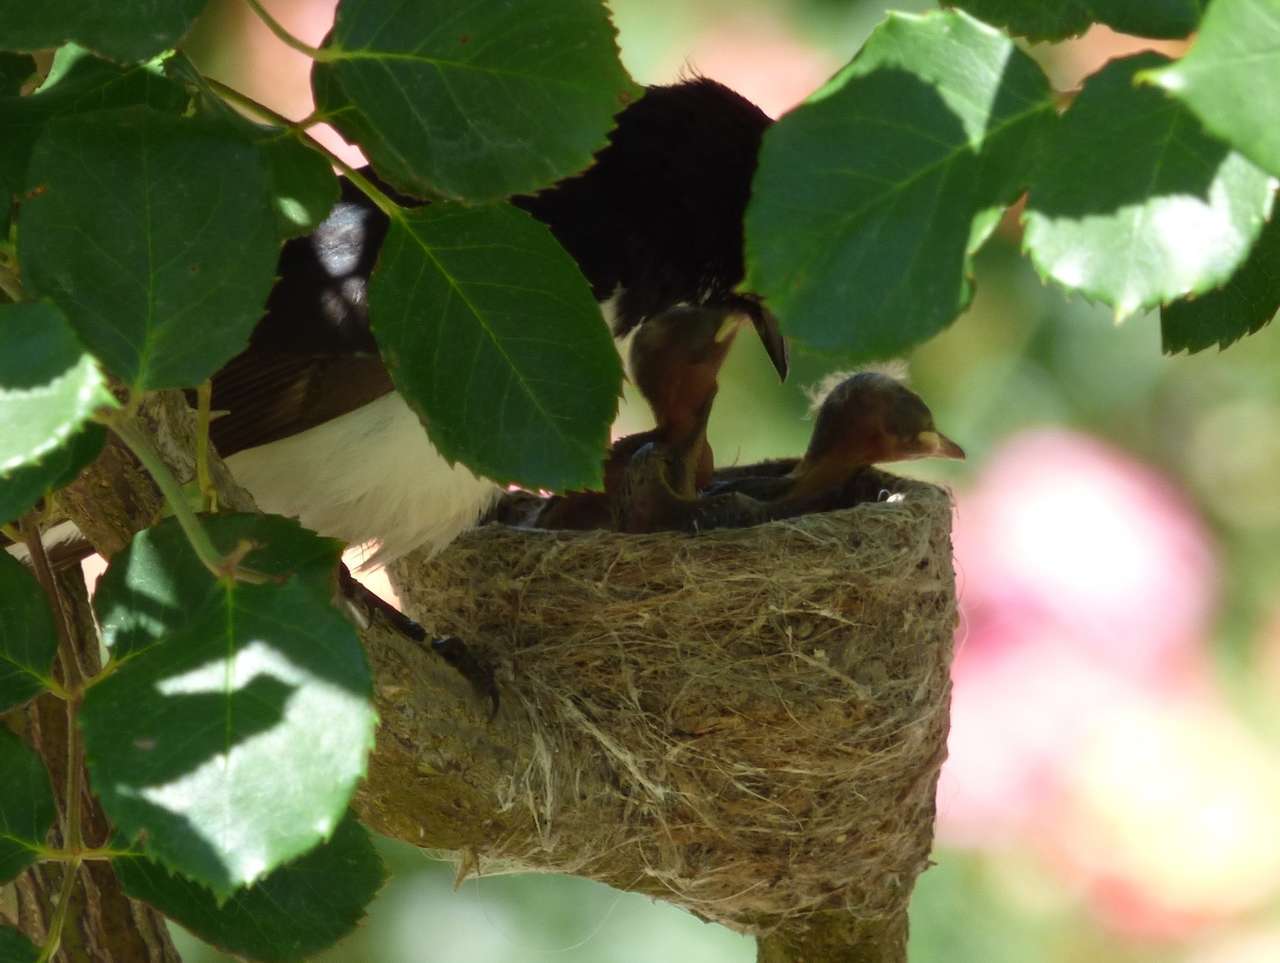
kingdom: Animalia
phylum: Chordata
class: Aves
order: Passeriformes
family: Rhipiduridae
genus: Rhipidura
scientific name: Rhipidura leucophrys
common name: Willie wagtail
